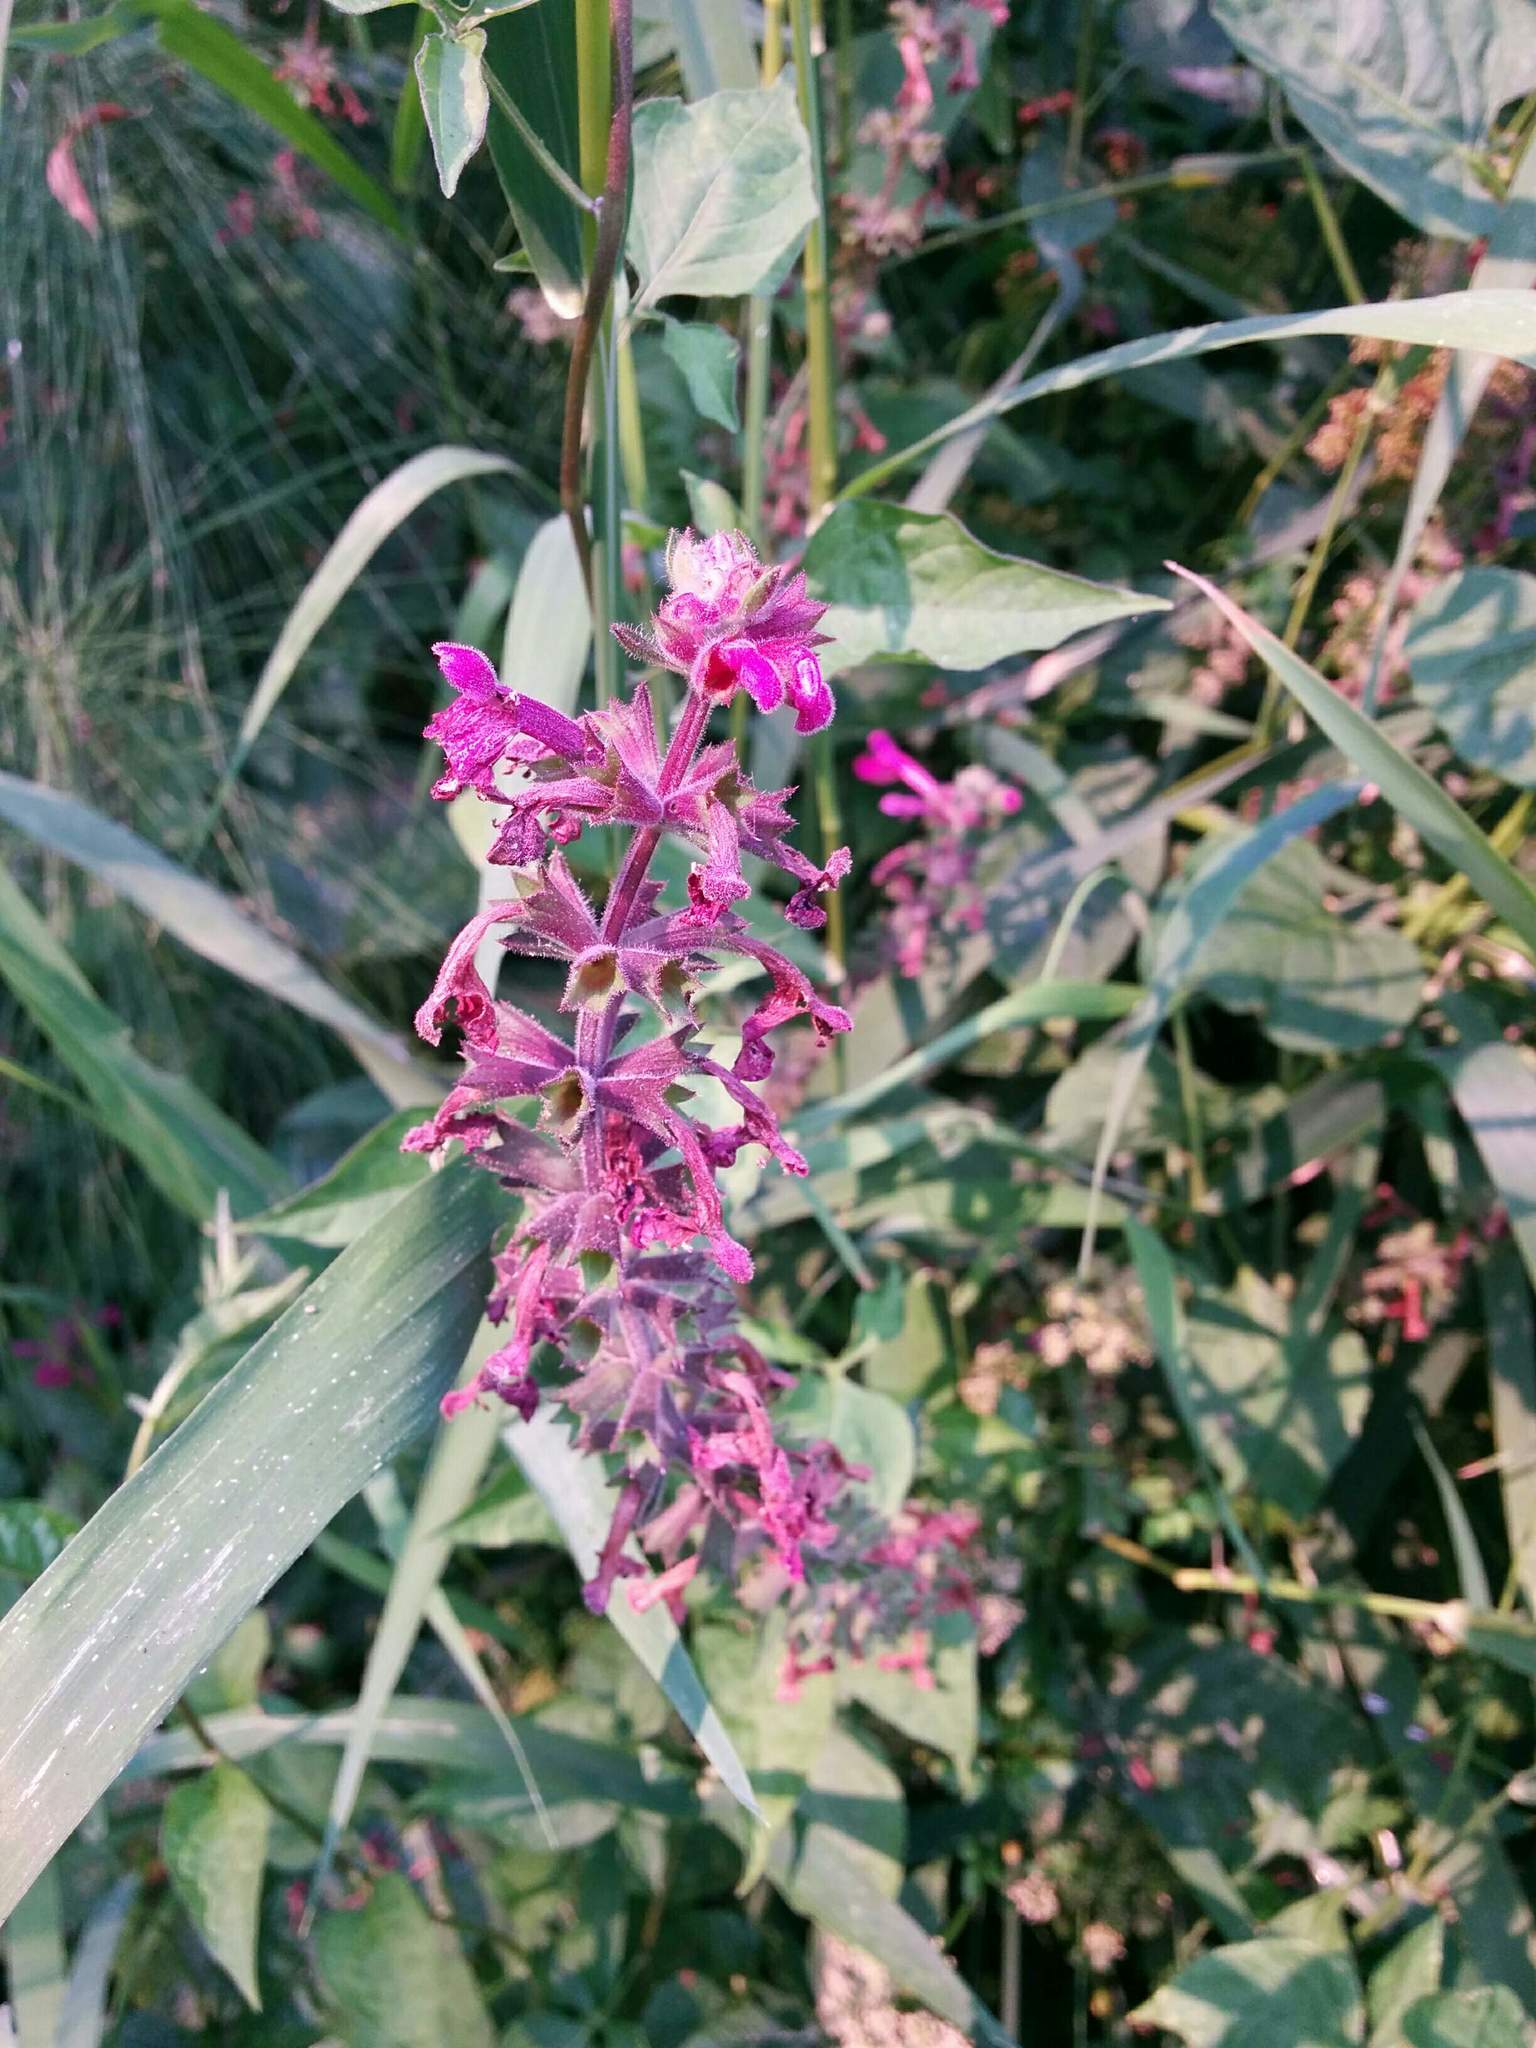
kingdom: Plantae
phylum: Tracheophyta
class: Magnoliopsida
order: Lamiales
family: Lamiaceae
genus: Stachys
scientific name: Stachys chamissonis
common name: Coastal hedge-nettle
